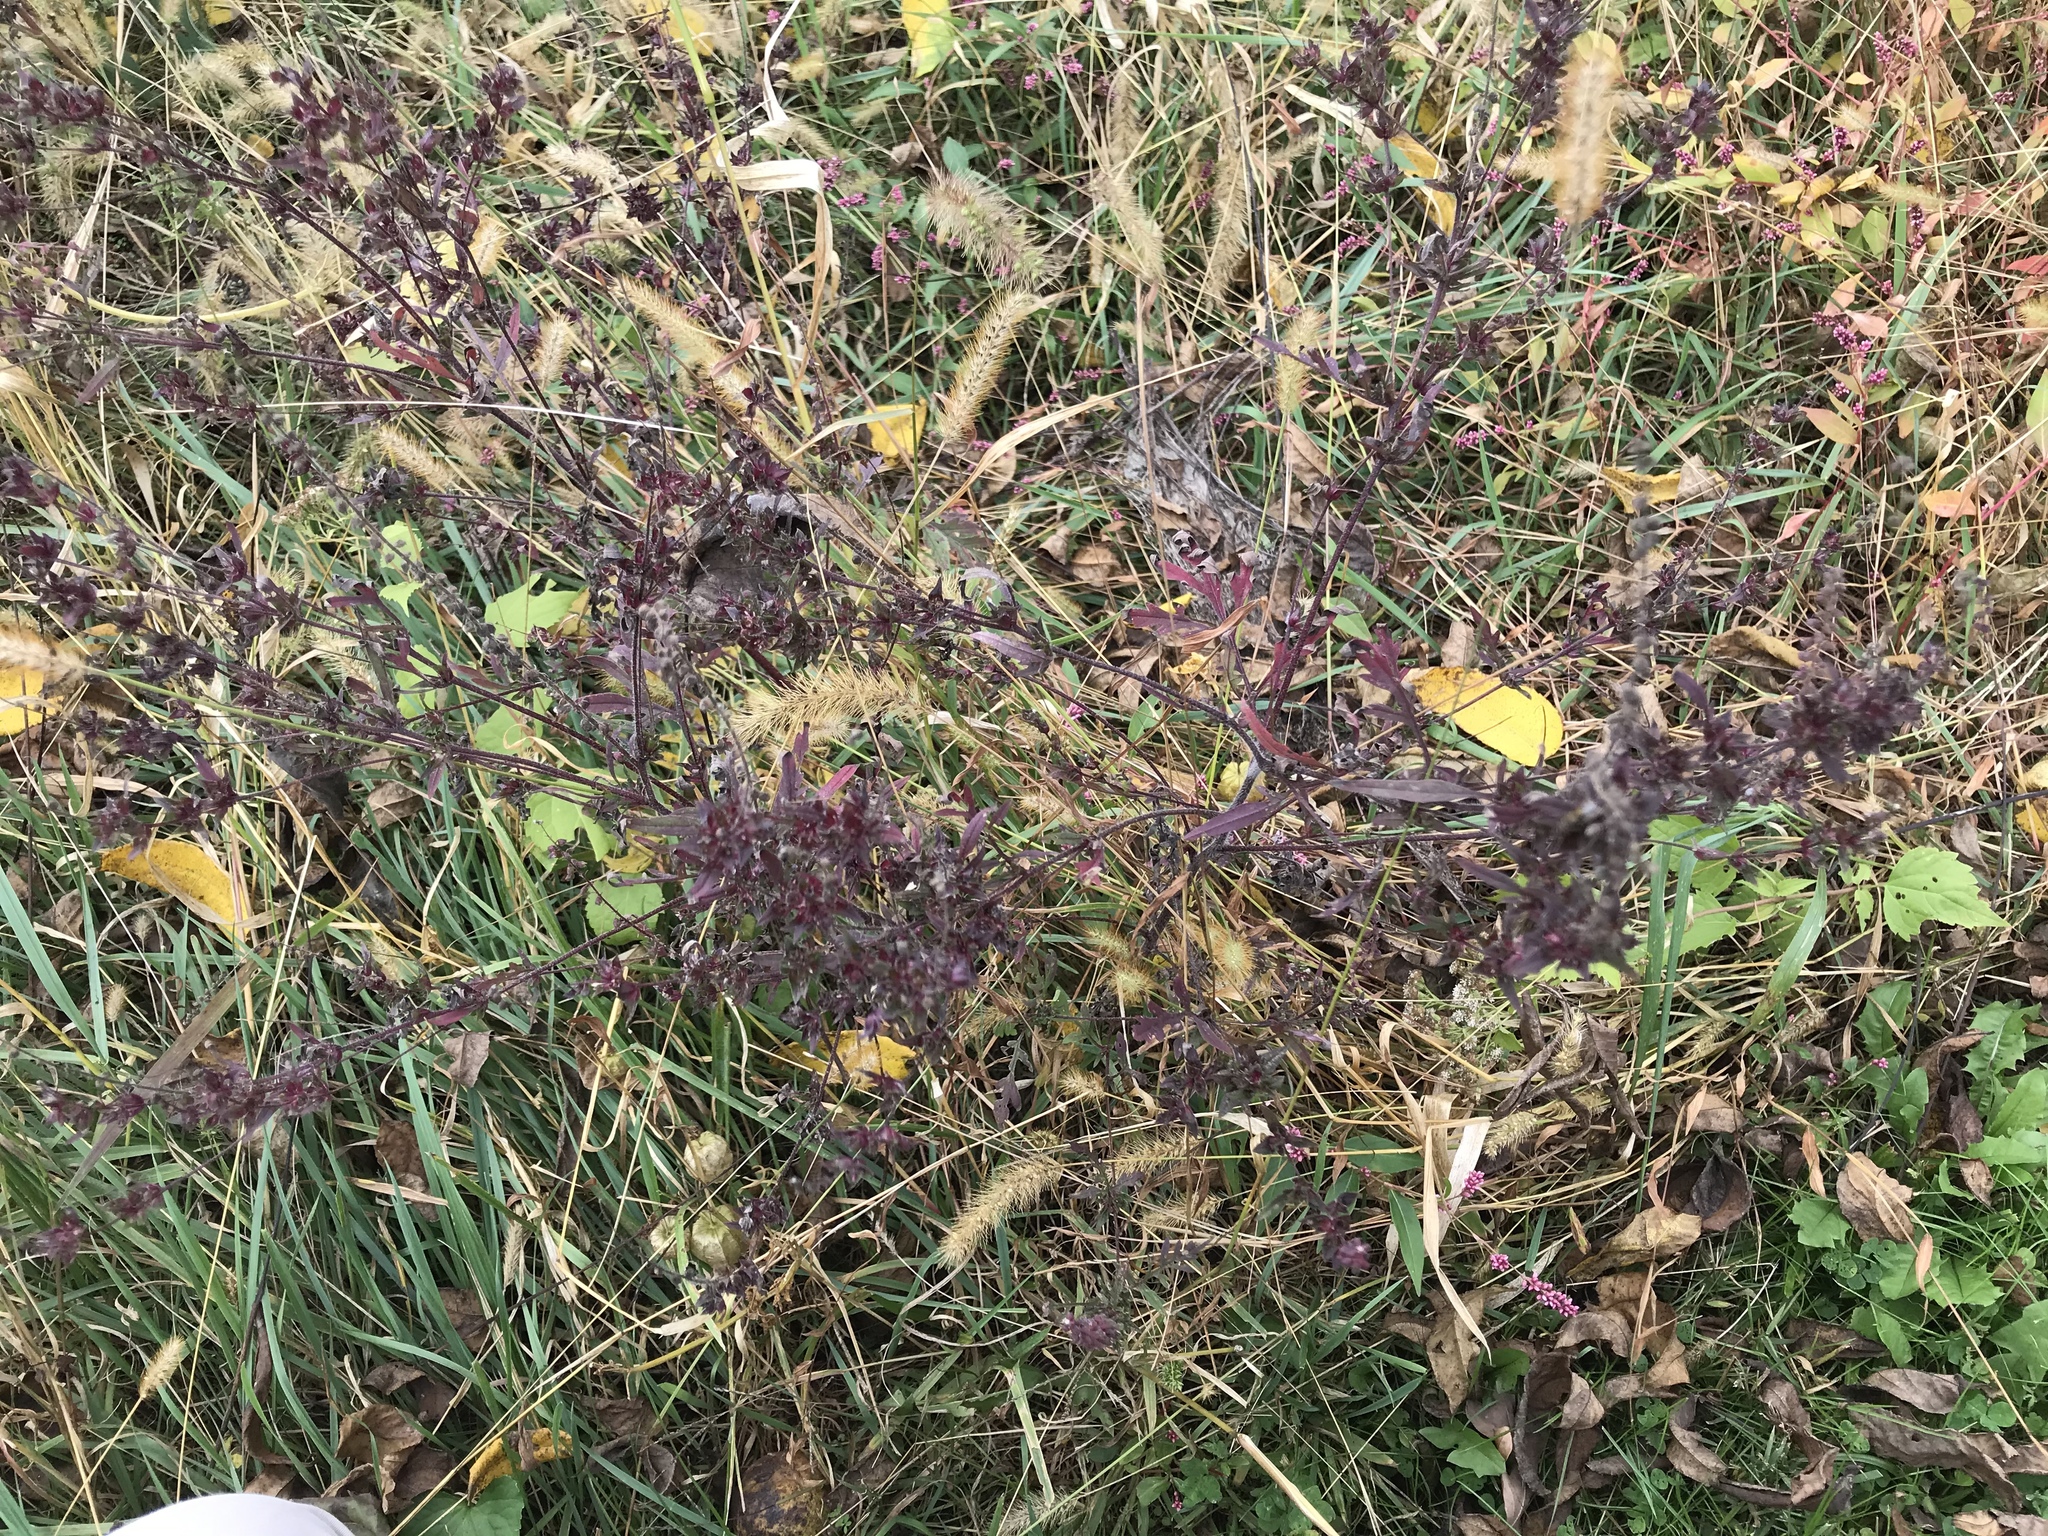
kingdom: Plantae
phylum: Tracheophyta
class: Magnoliopsida
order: Asterales
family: Asteraceae
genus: Ambrosia
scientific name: Ambrosia artemisiifolia
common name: Annual ragweed
